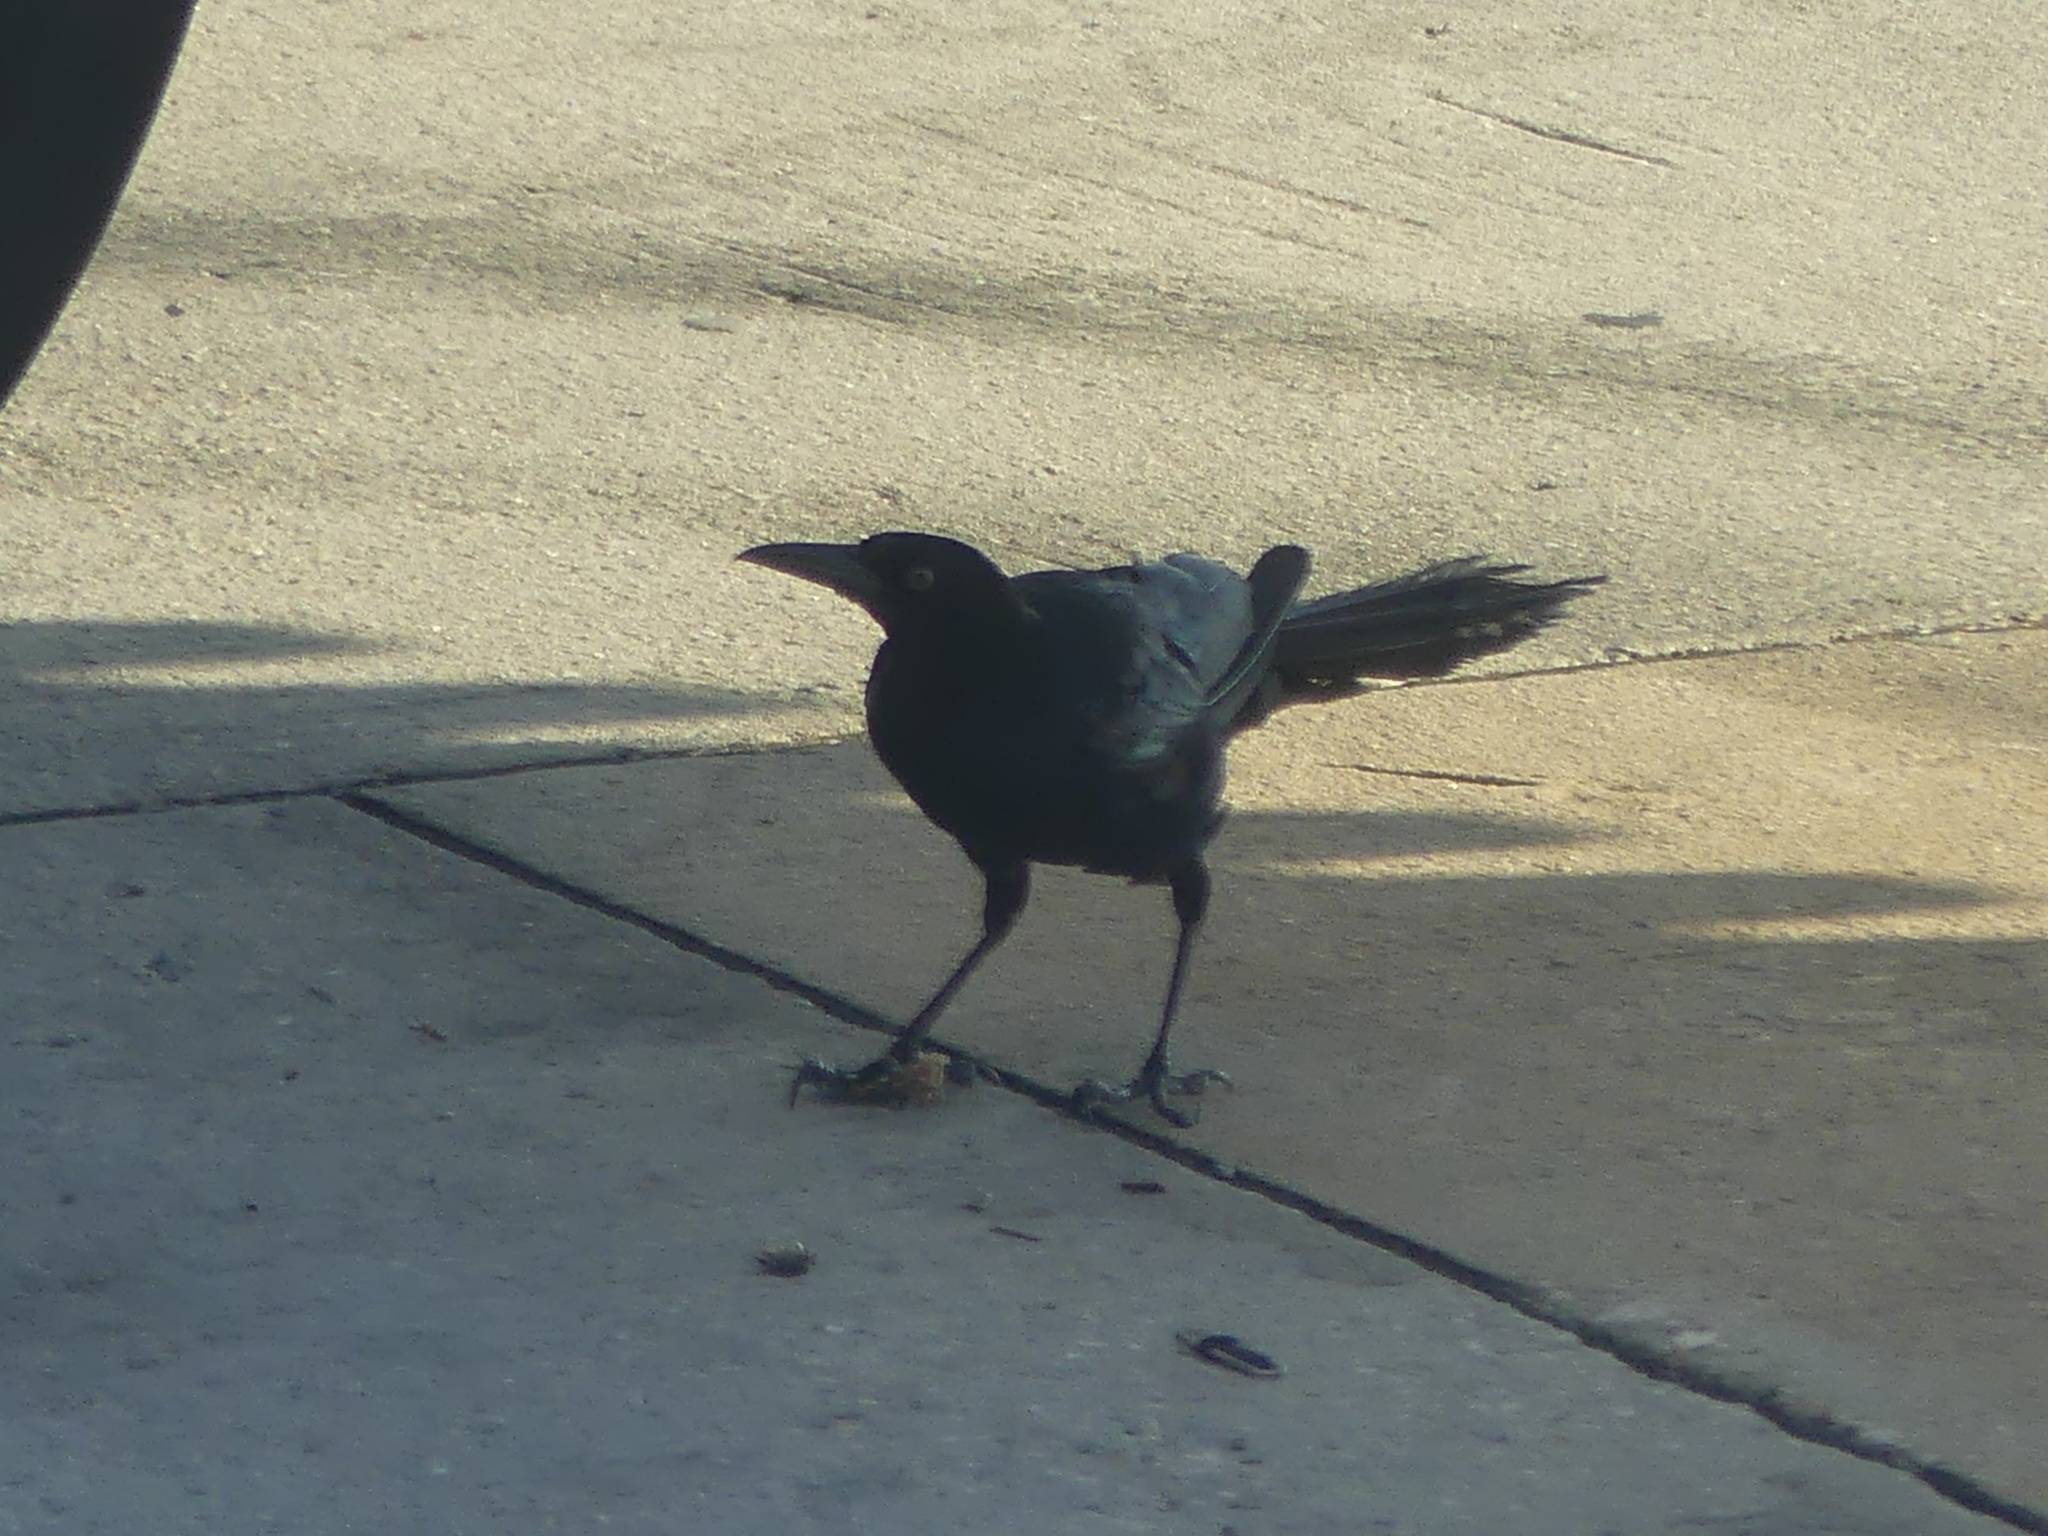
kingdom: Animalia
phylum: Chordata
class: Aves
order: Passeriformes
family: Icteridae
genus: Quiscalus
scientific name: Quiscalus major
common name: Boat-tailed grackle
